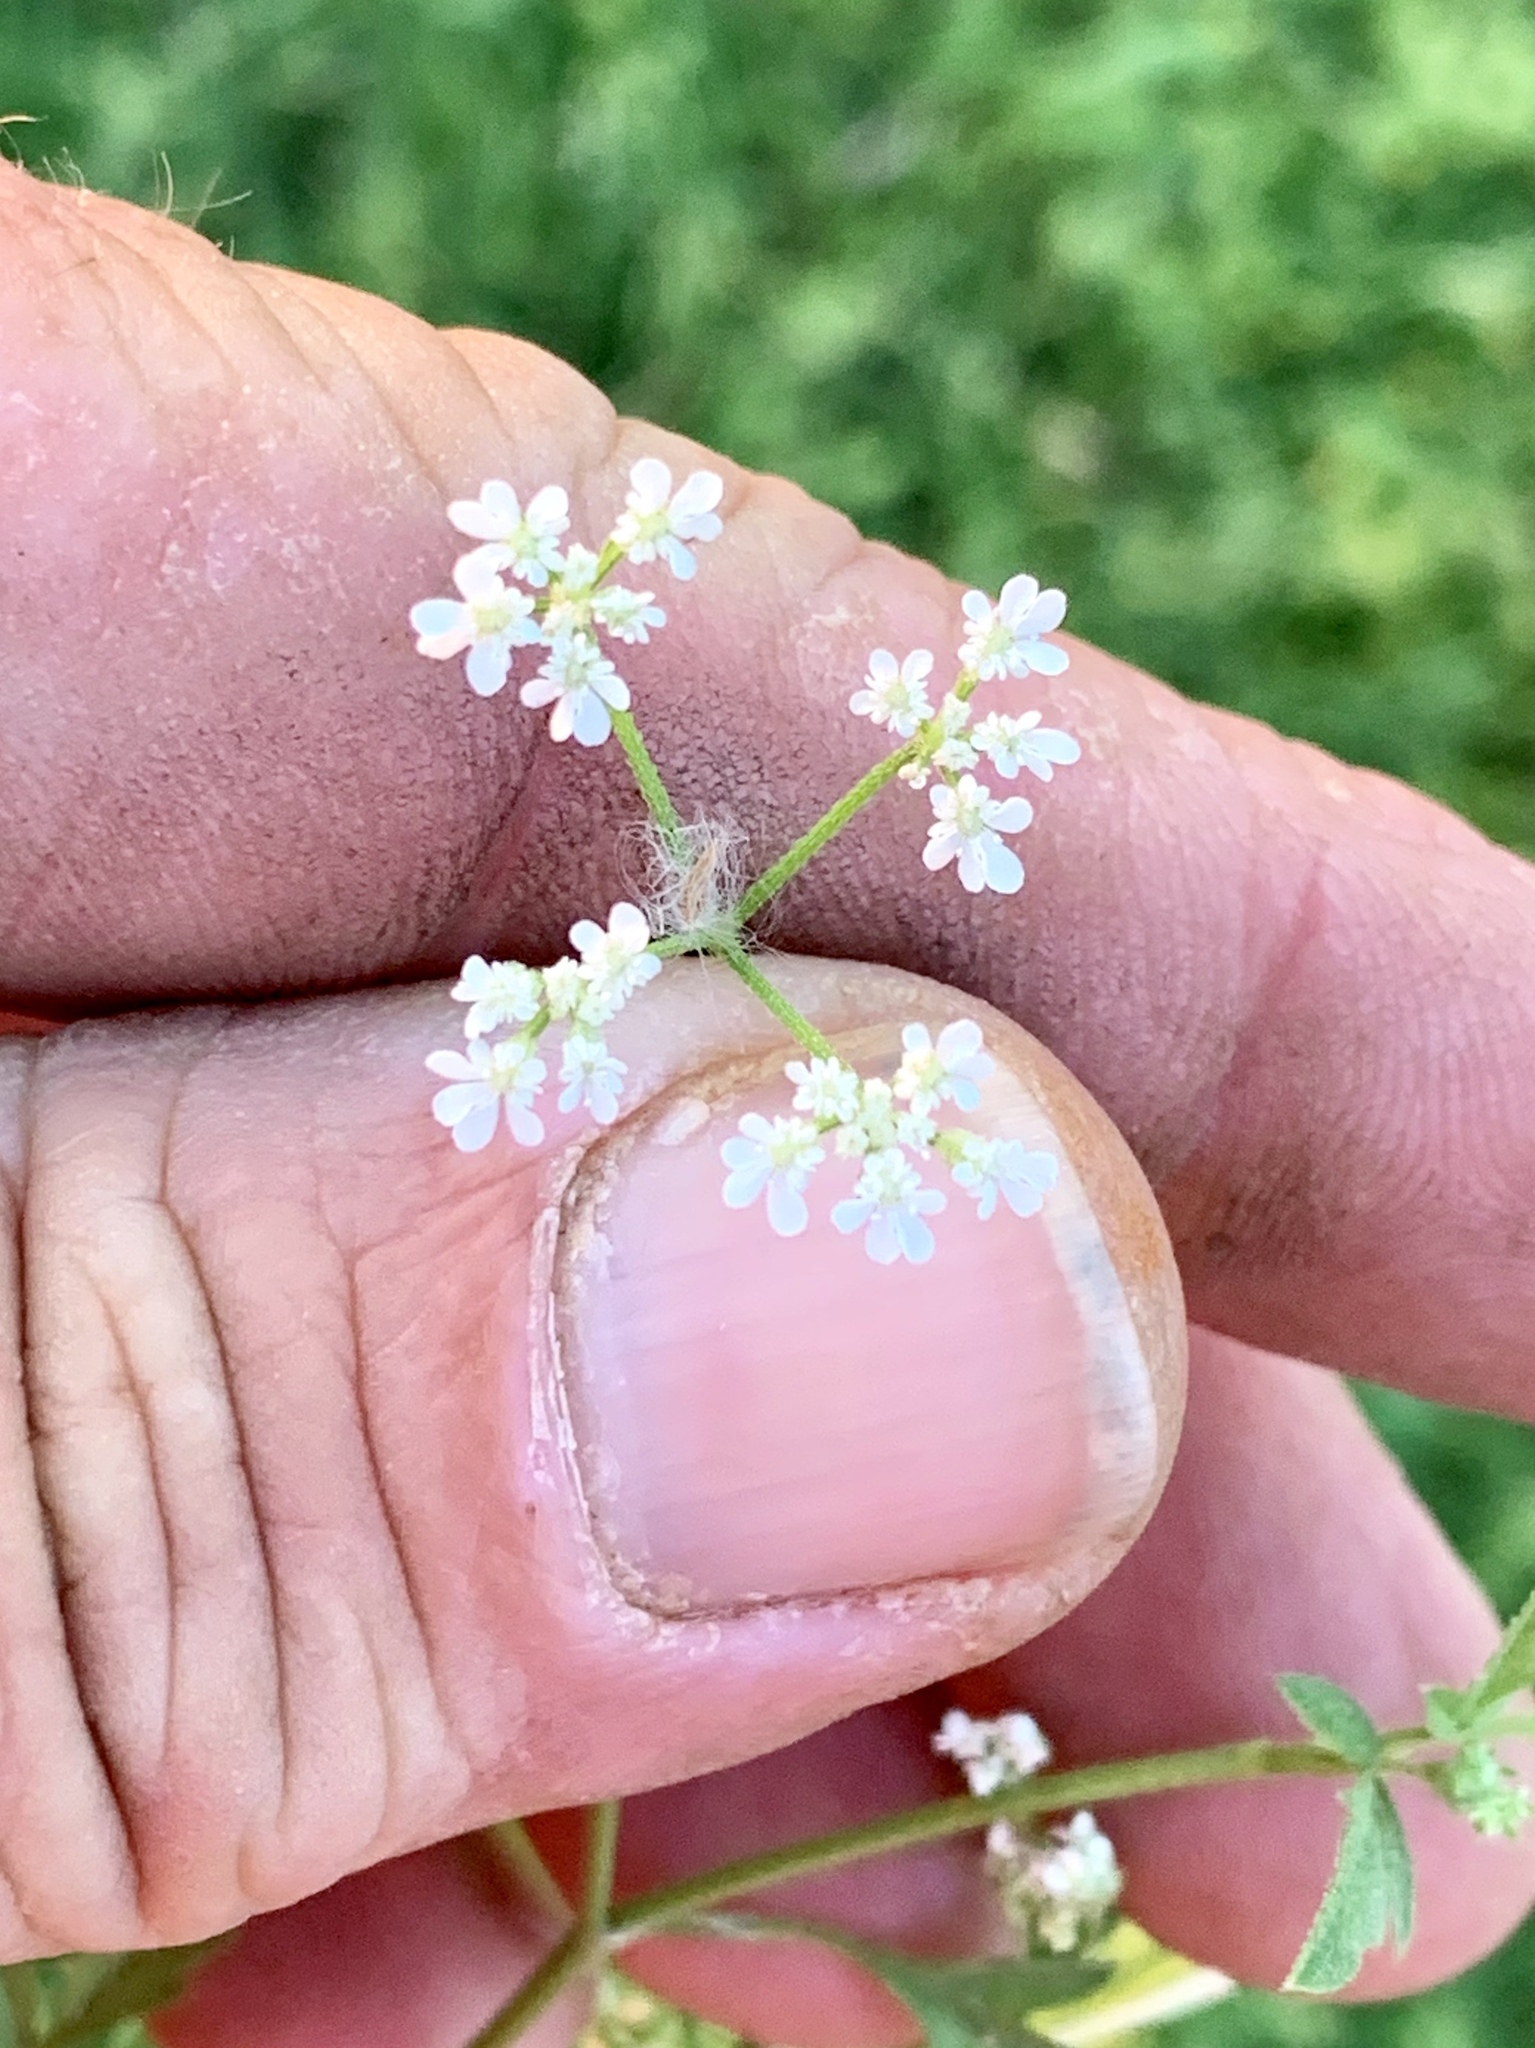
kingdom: Plantae
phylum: Tracheophyta
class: Magnoliopsida
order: Apiales
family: Apiaceae
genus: Torilis
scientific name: Torilis arvensis
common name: Spreading hedge-parsley
